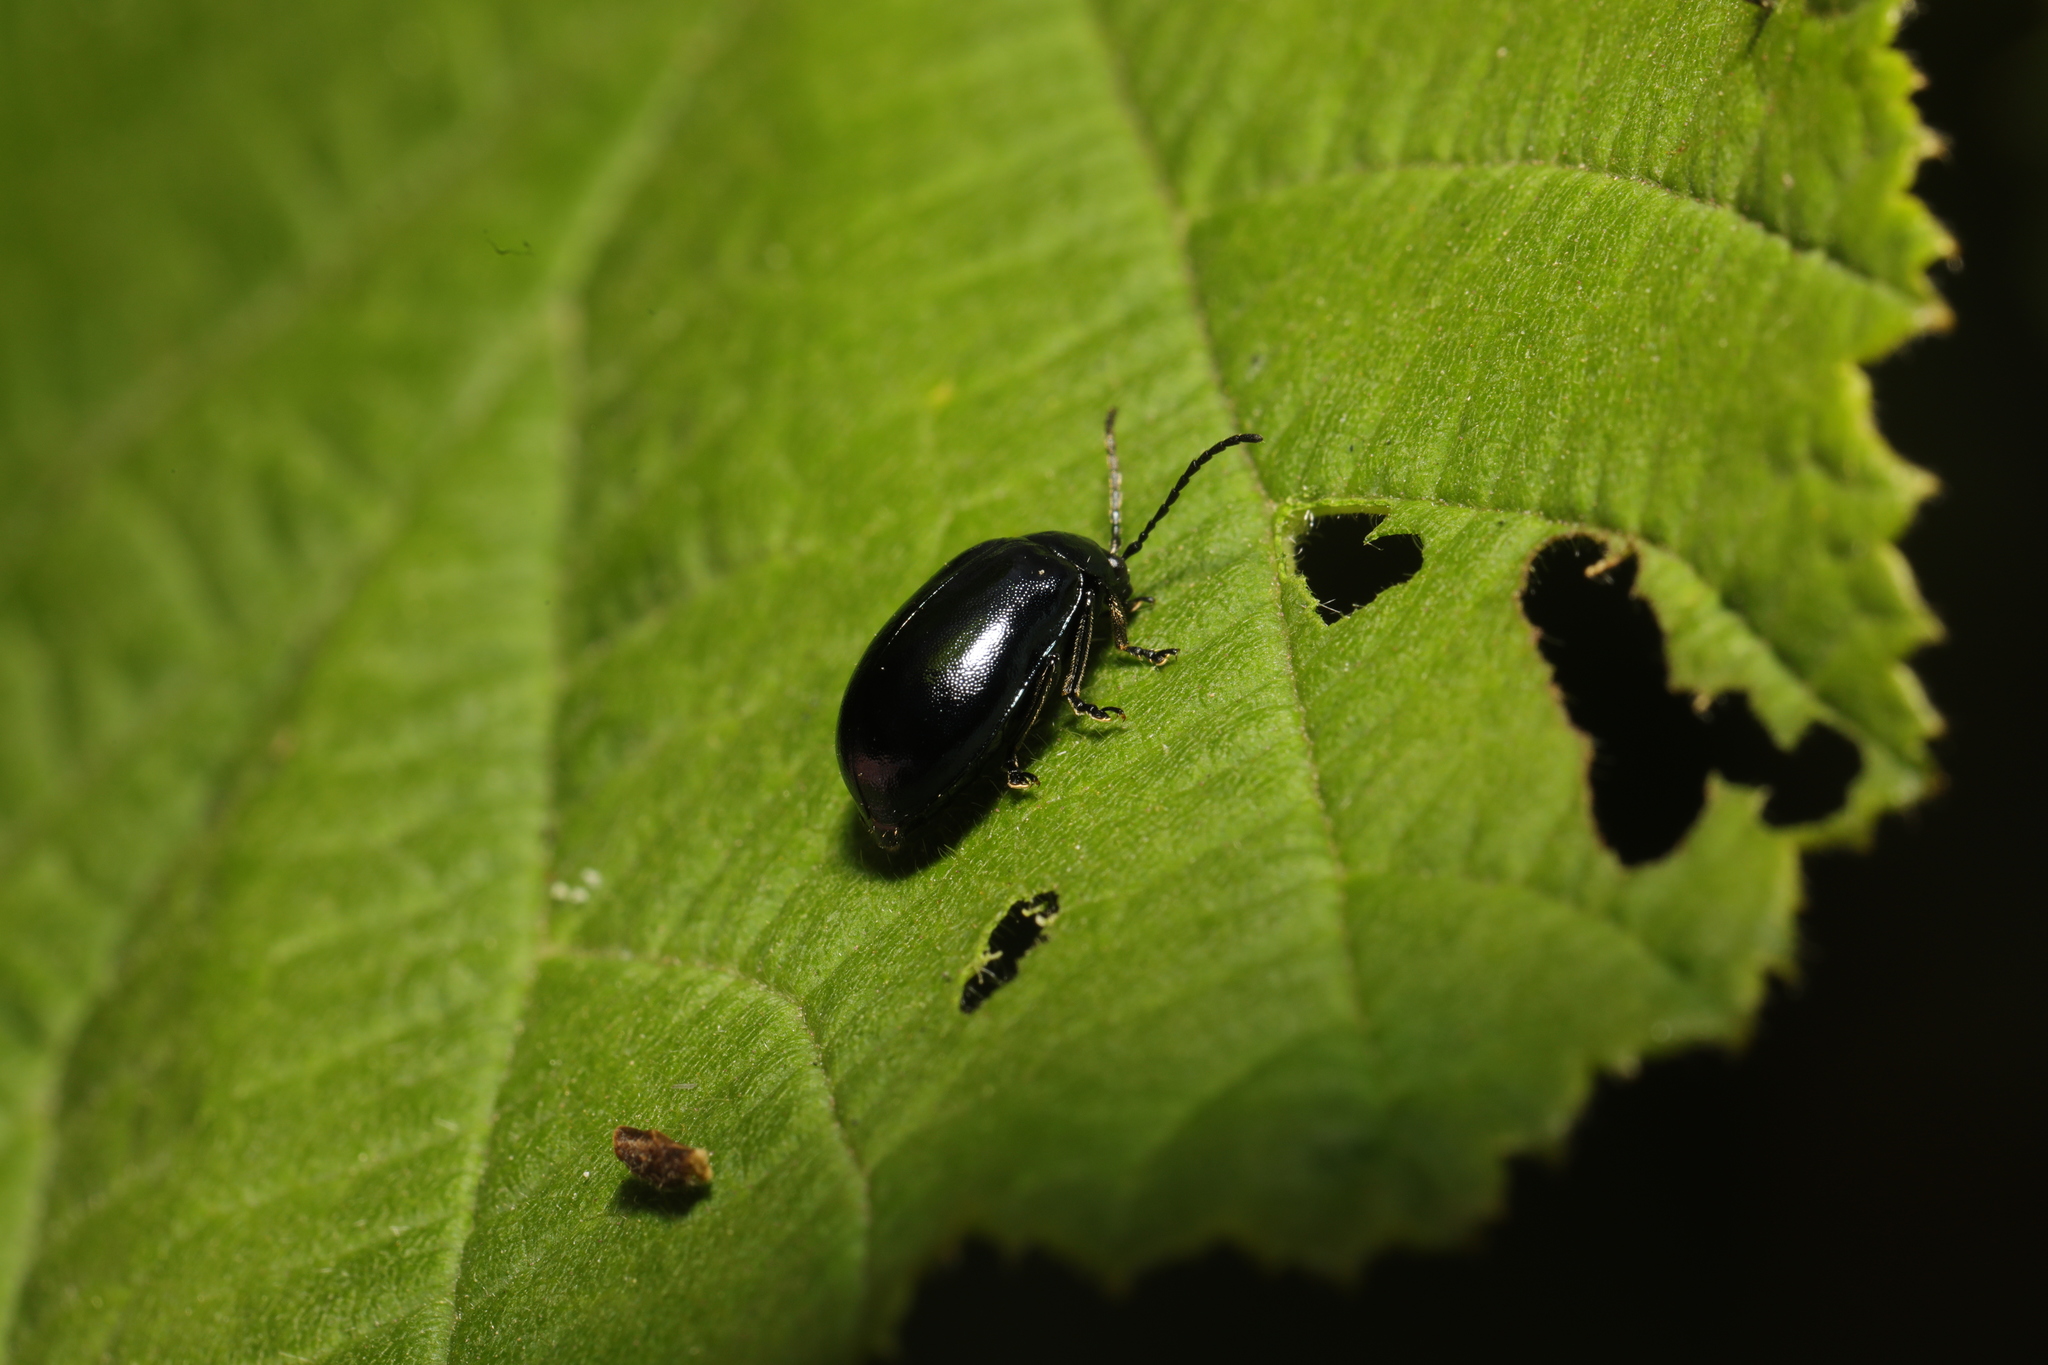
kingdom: Animalia
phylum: Arthropoda
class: Insecta
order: Coleoptera
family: Chrysomelidae
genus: Agelastica
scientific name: Agelastica alni
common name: Alder leaf beetle
